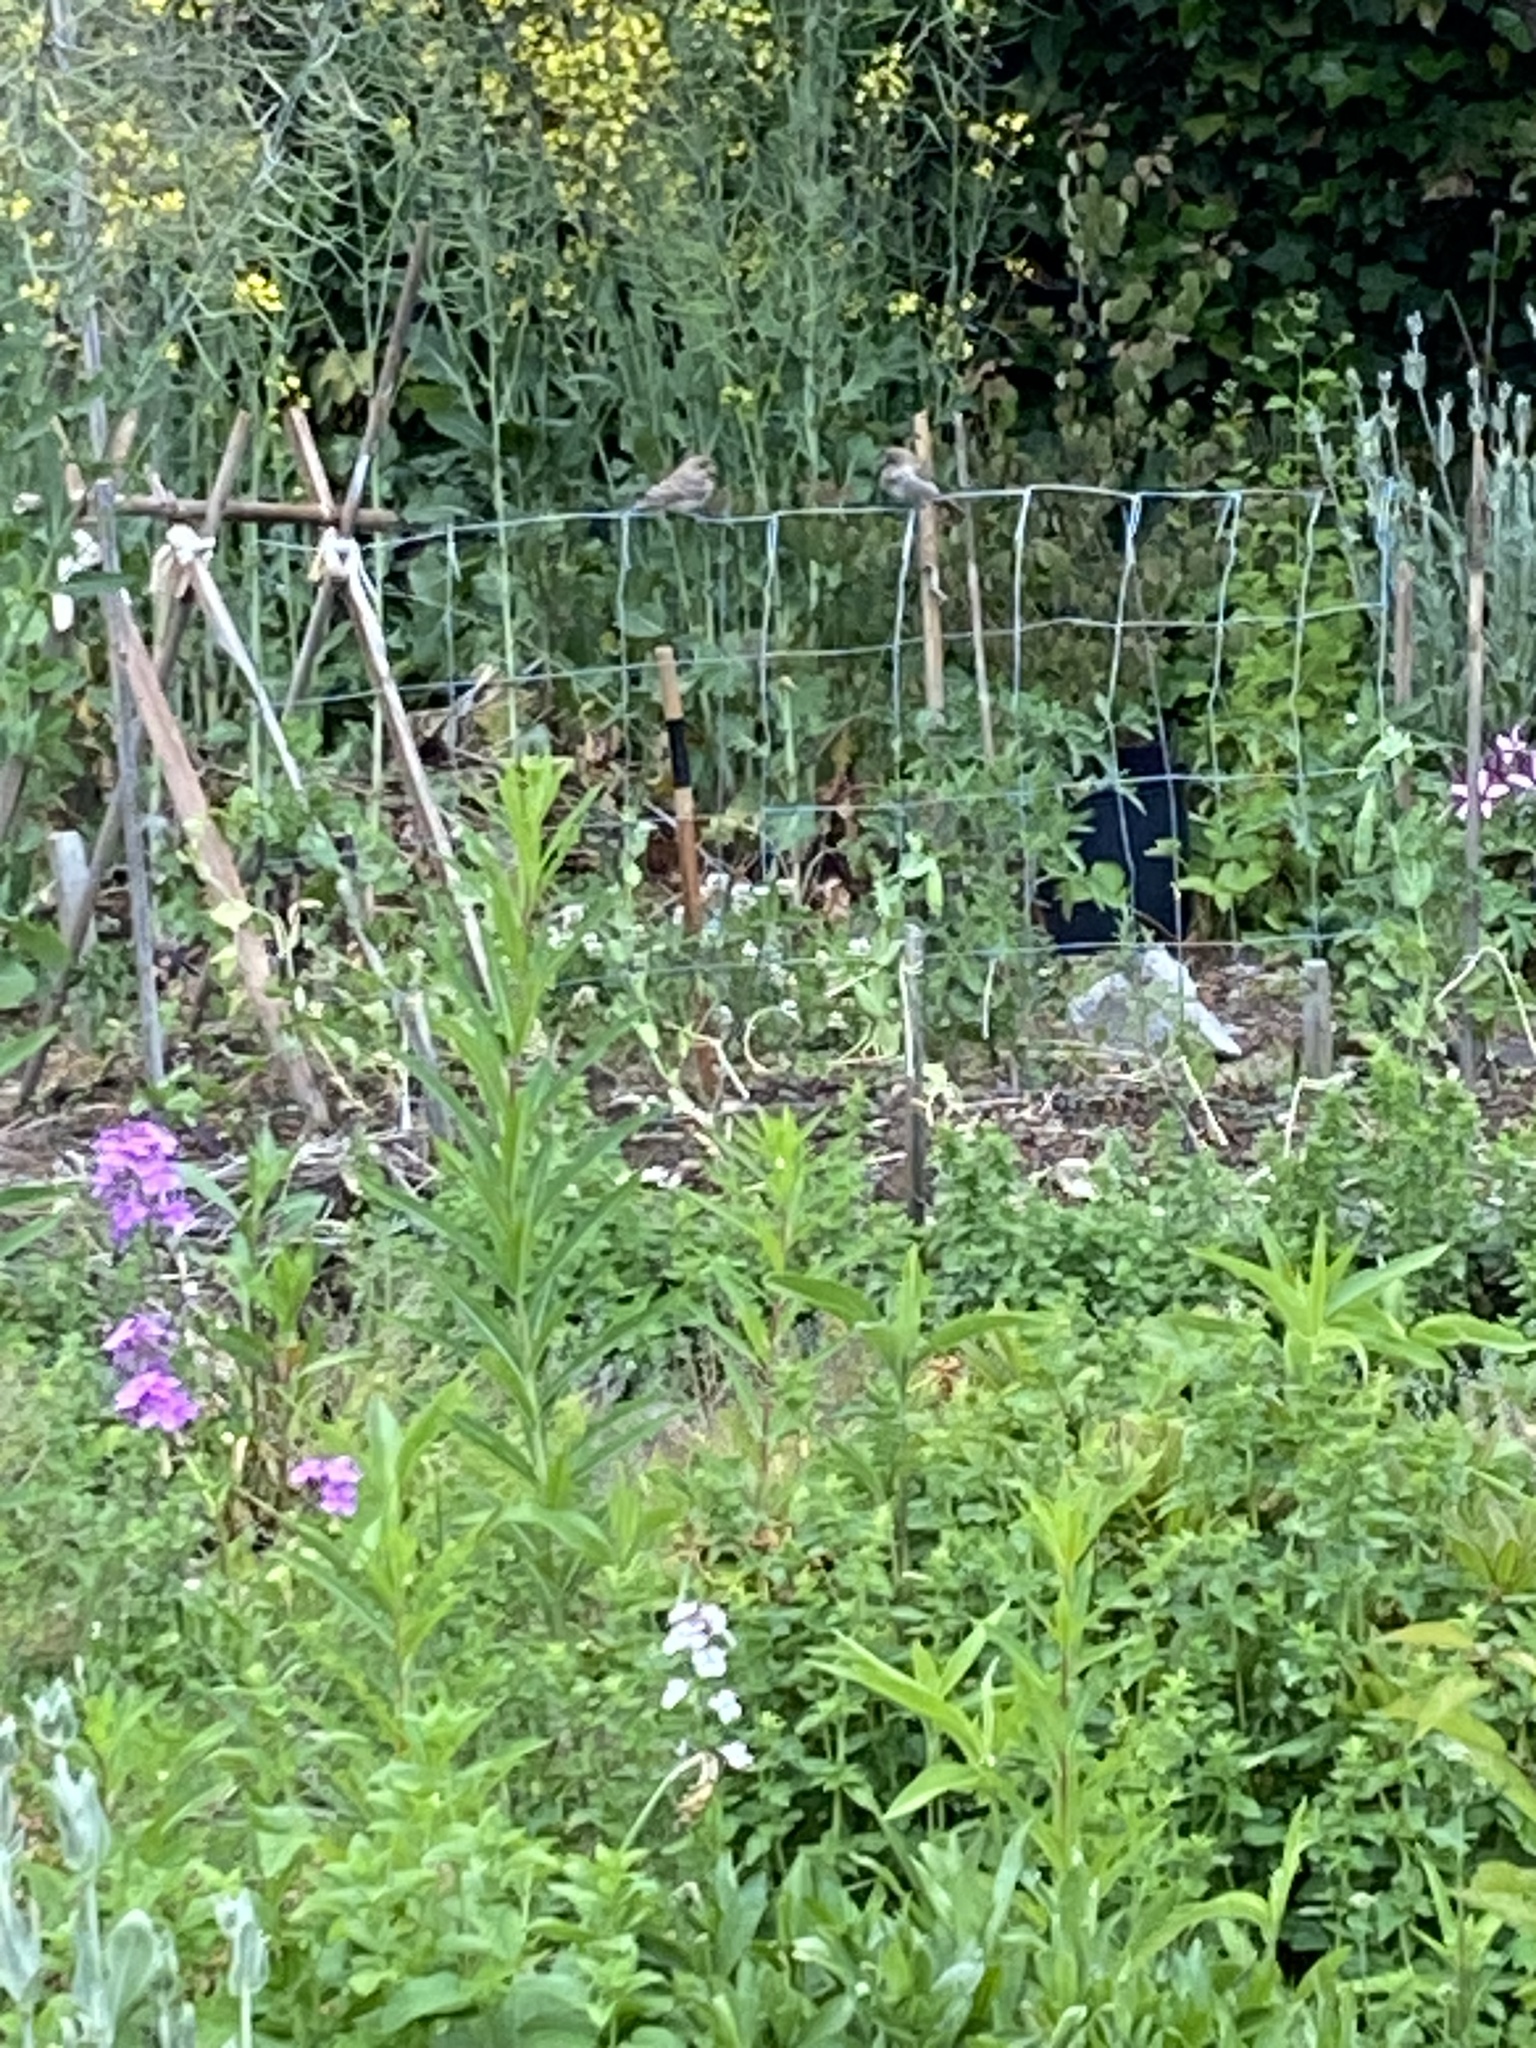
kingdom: Animalia
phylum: Chordata
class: Aves
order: Passeriformes
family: Fringillidae
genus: Haemorhous
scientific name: Haemorhous mexicanus
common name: House finch
